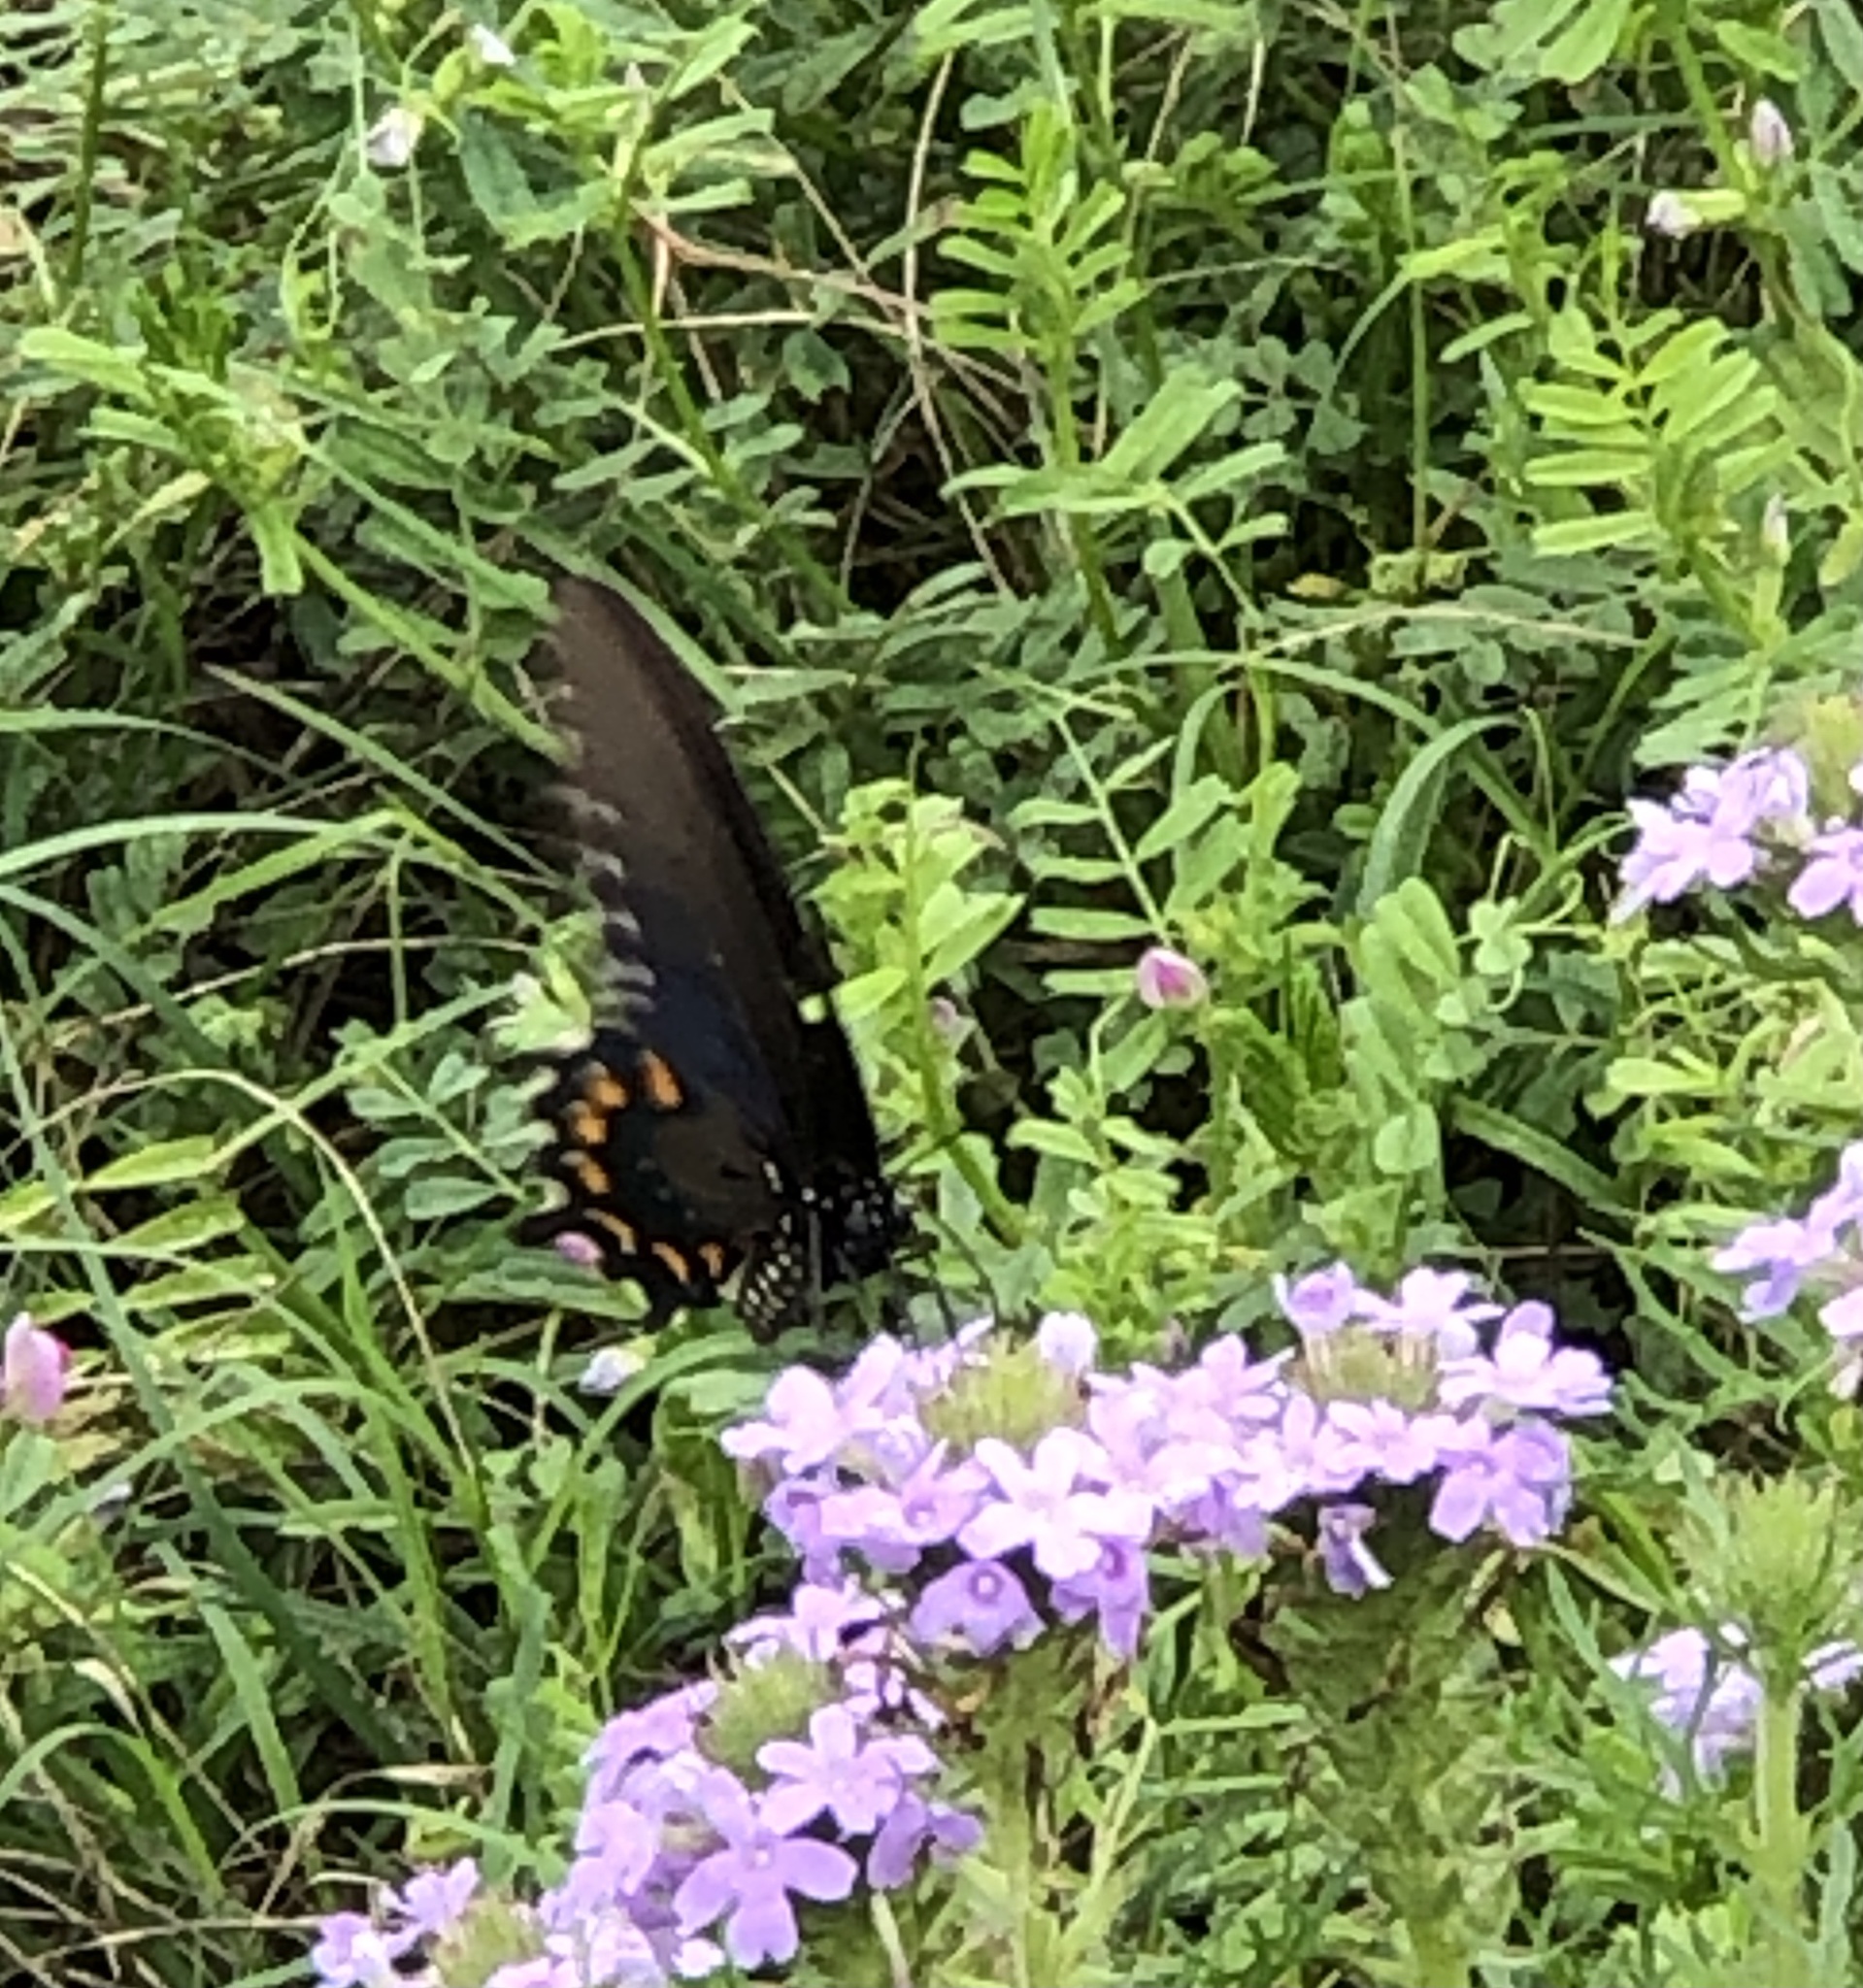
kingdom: Animalia
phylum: Arthropoda
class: Insecta
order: Lepidoptera
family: Papilionidae
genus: Battus
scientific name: Battus philenor
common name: Pipevine swallowtail
